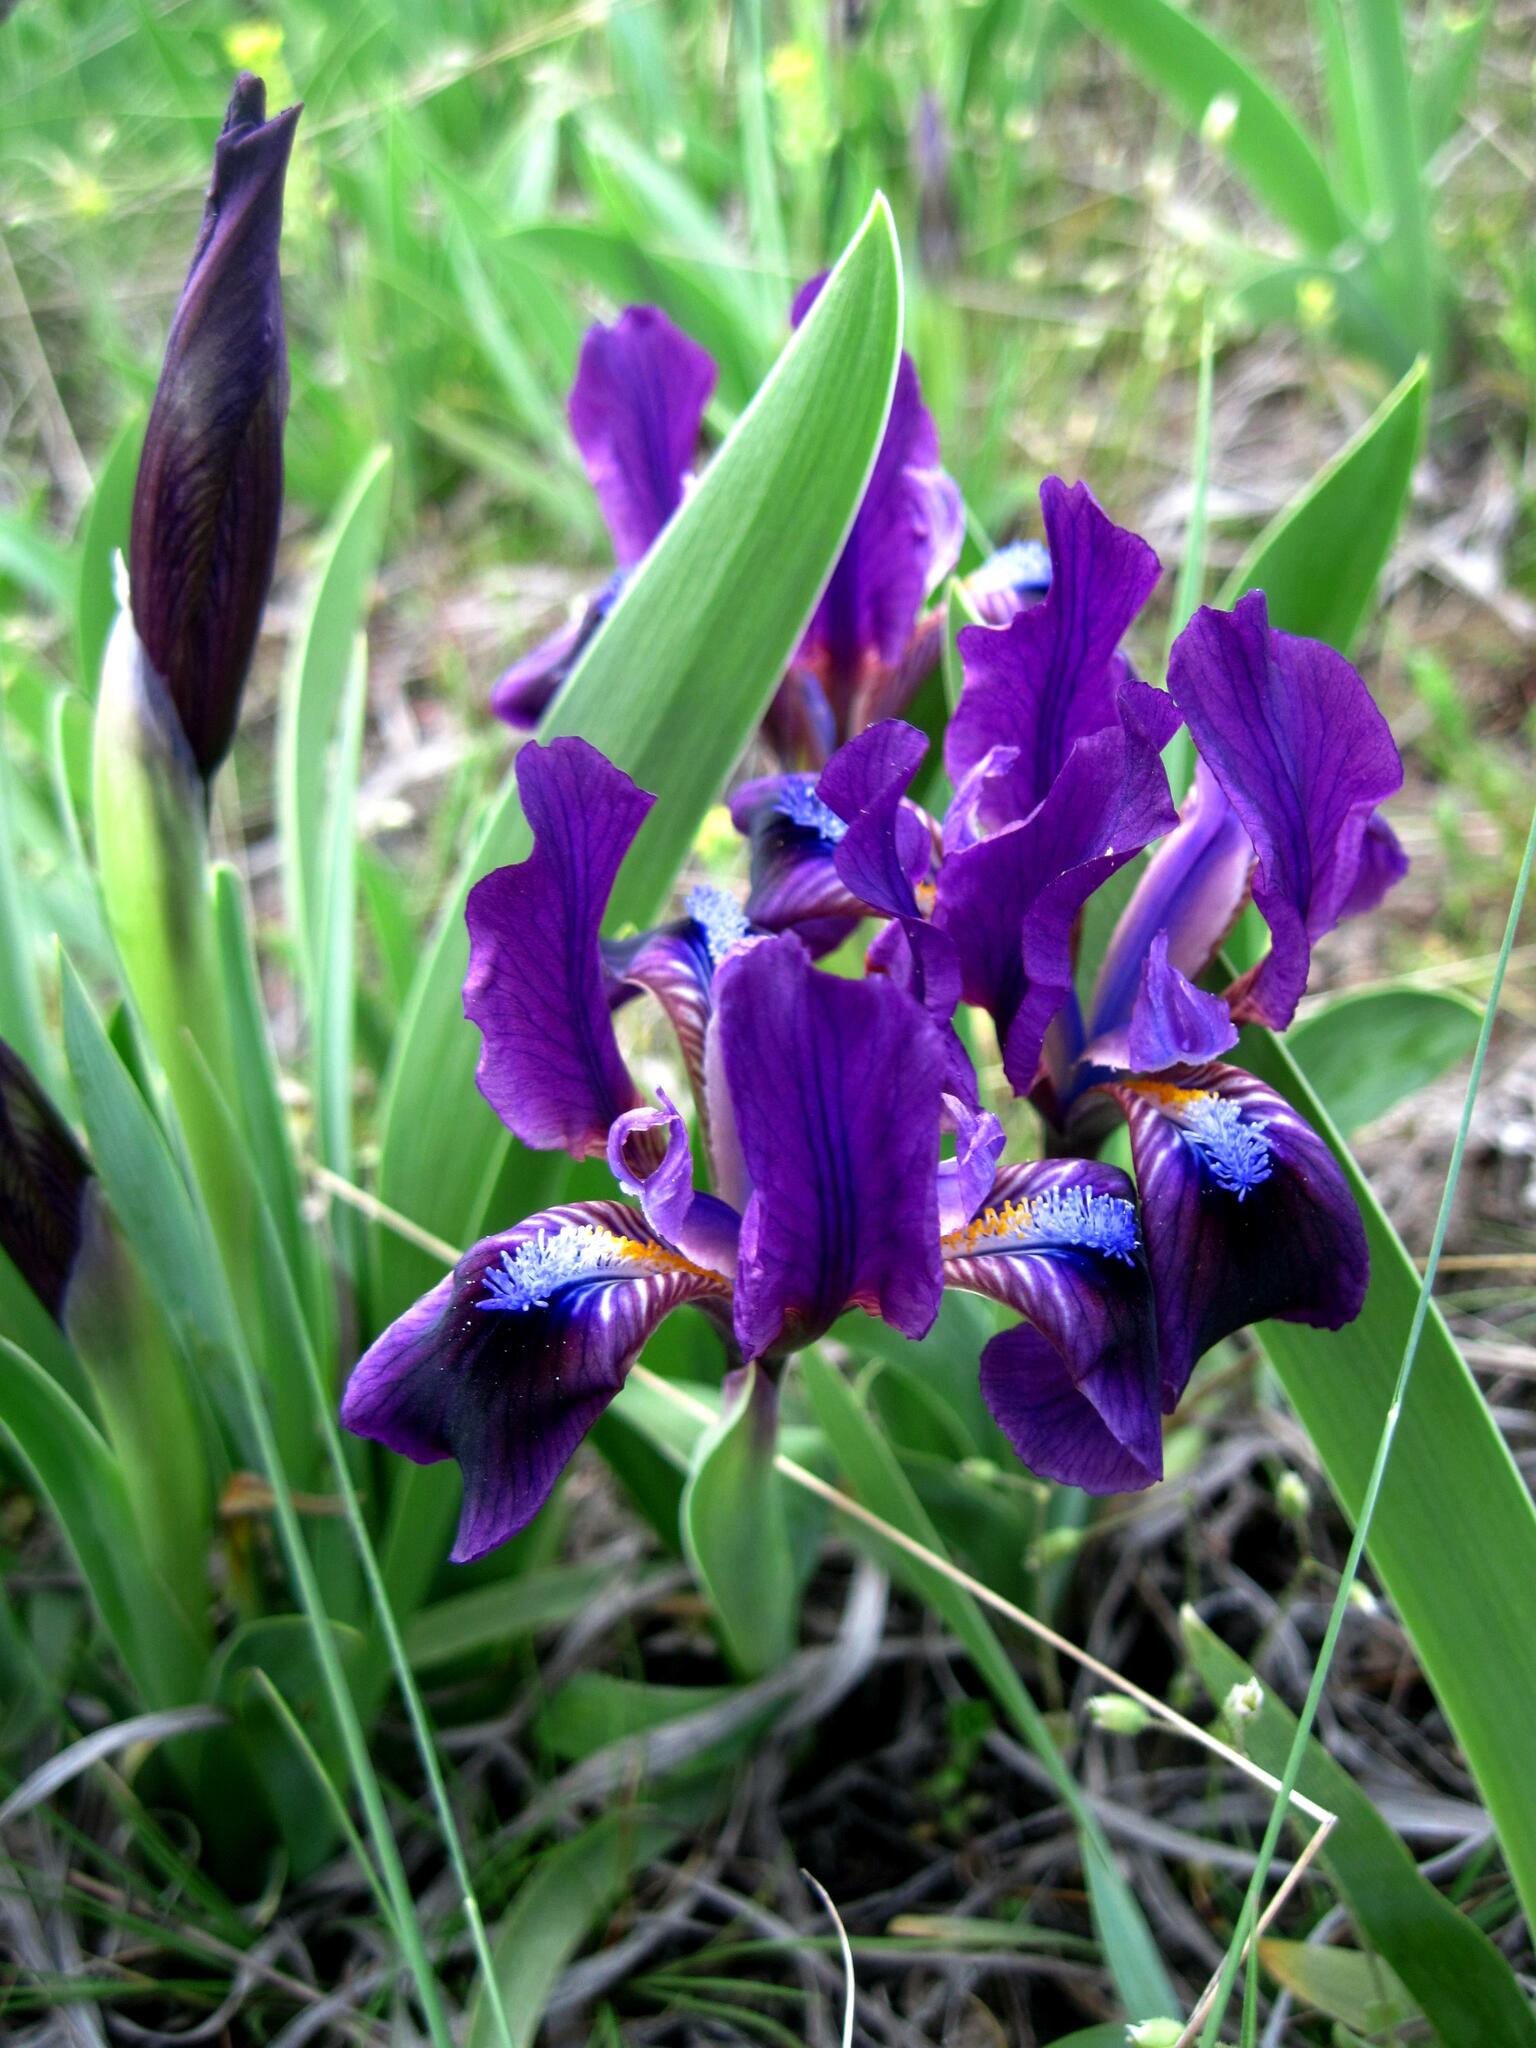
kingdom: Plantae
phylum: Tracheophyta
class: Liliopsida
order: Asparagales
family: Iridaceae
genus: Iris
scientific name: Iris pumila
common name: Dwarf iris
